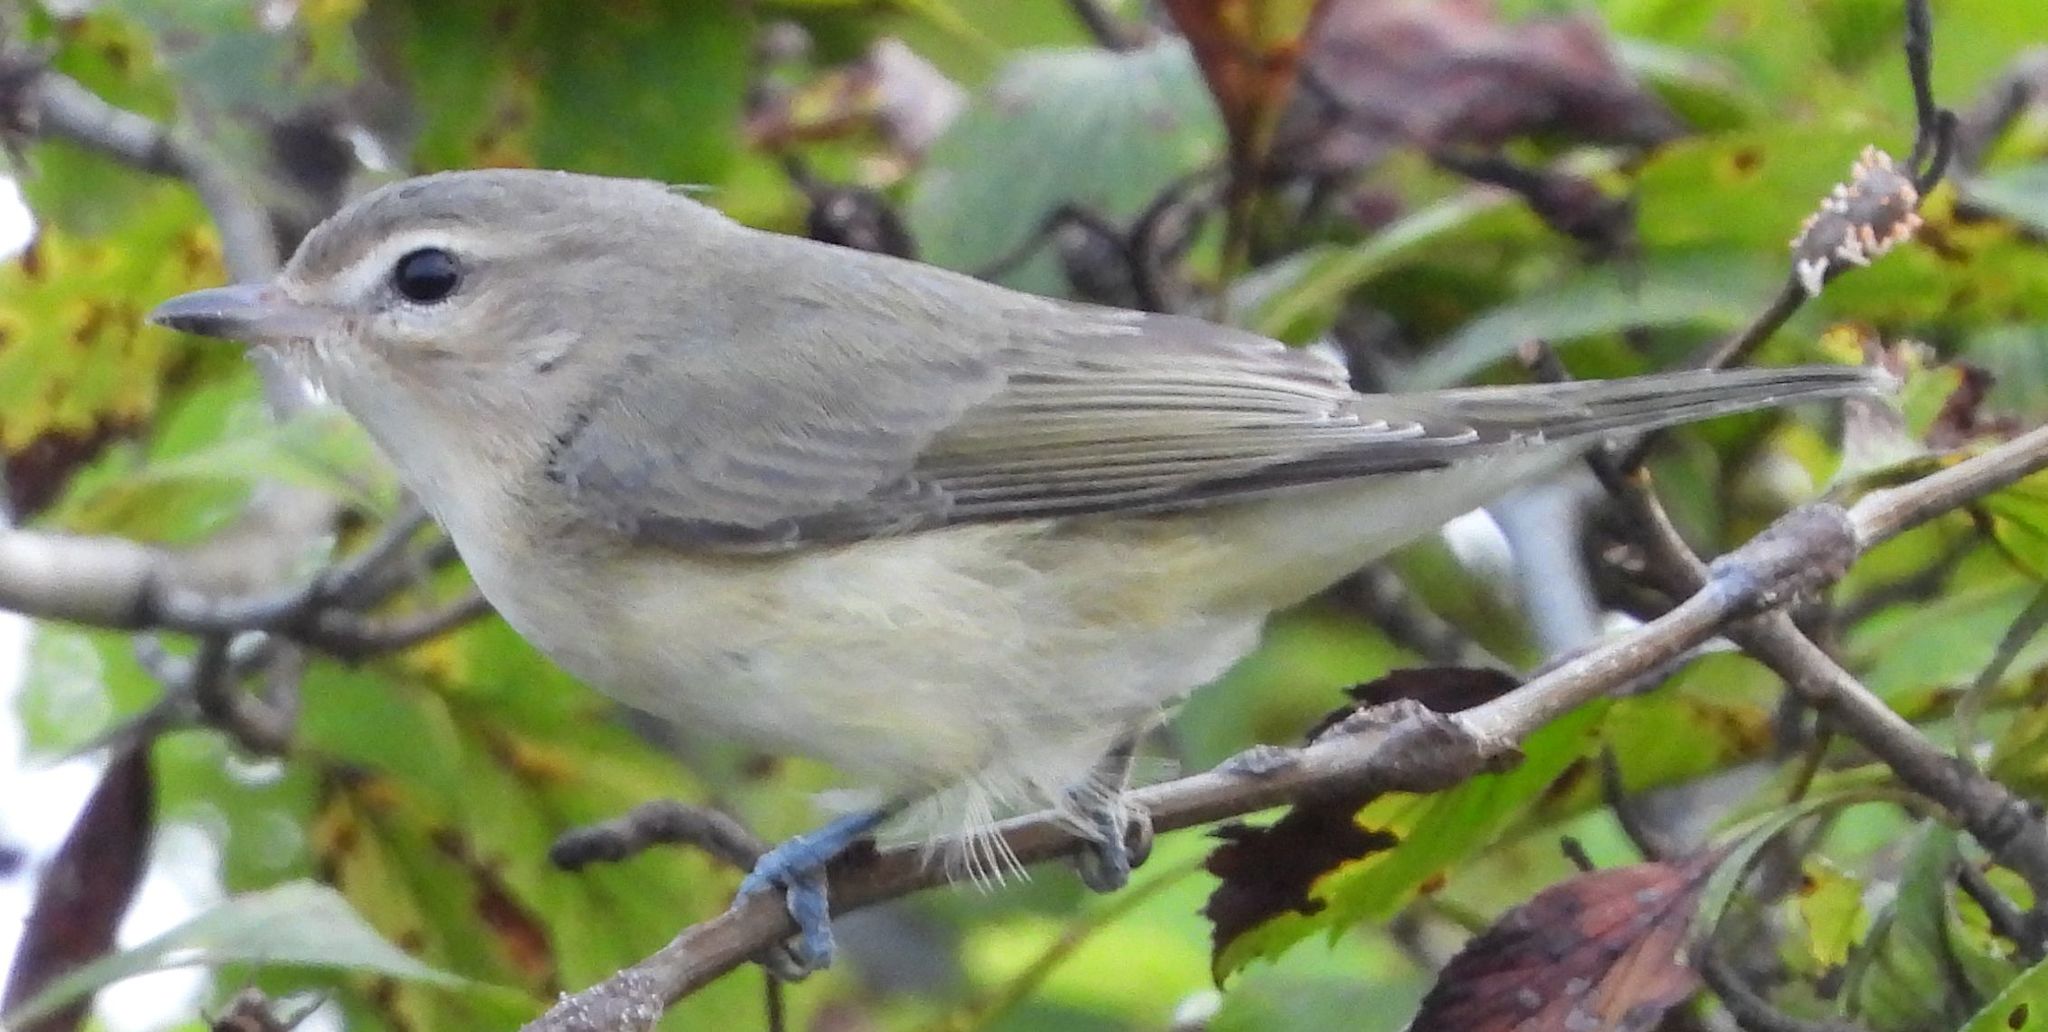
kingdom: Animalia
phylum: Chordata
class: Aves
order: Passeriformes
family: Vireonidae
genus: Vireo
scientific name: Vireo gilvus
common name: Warbling vireo
